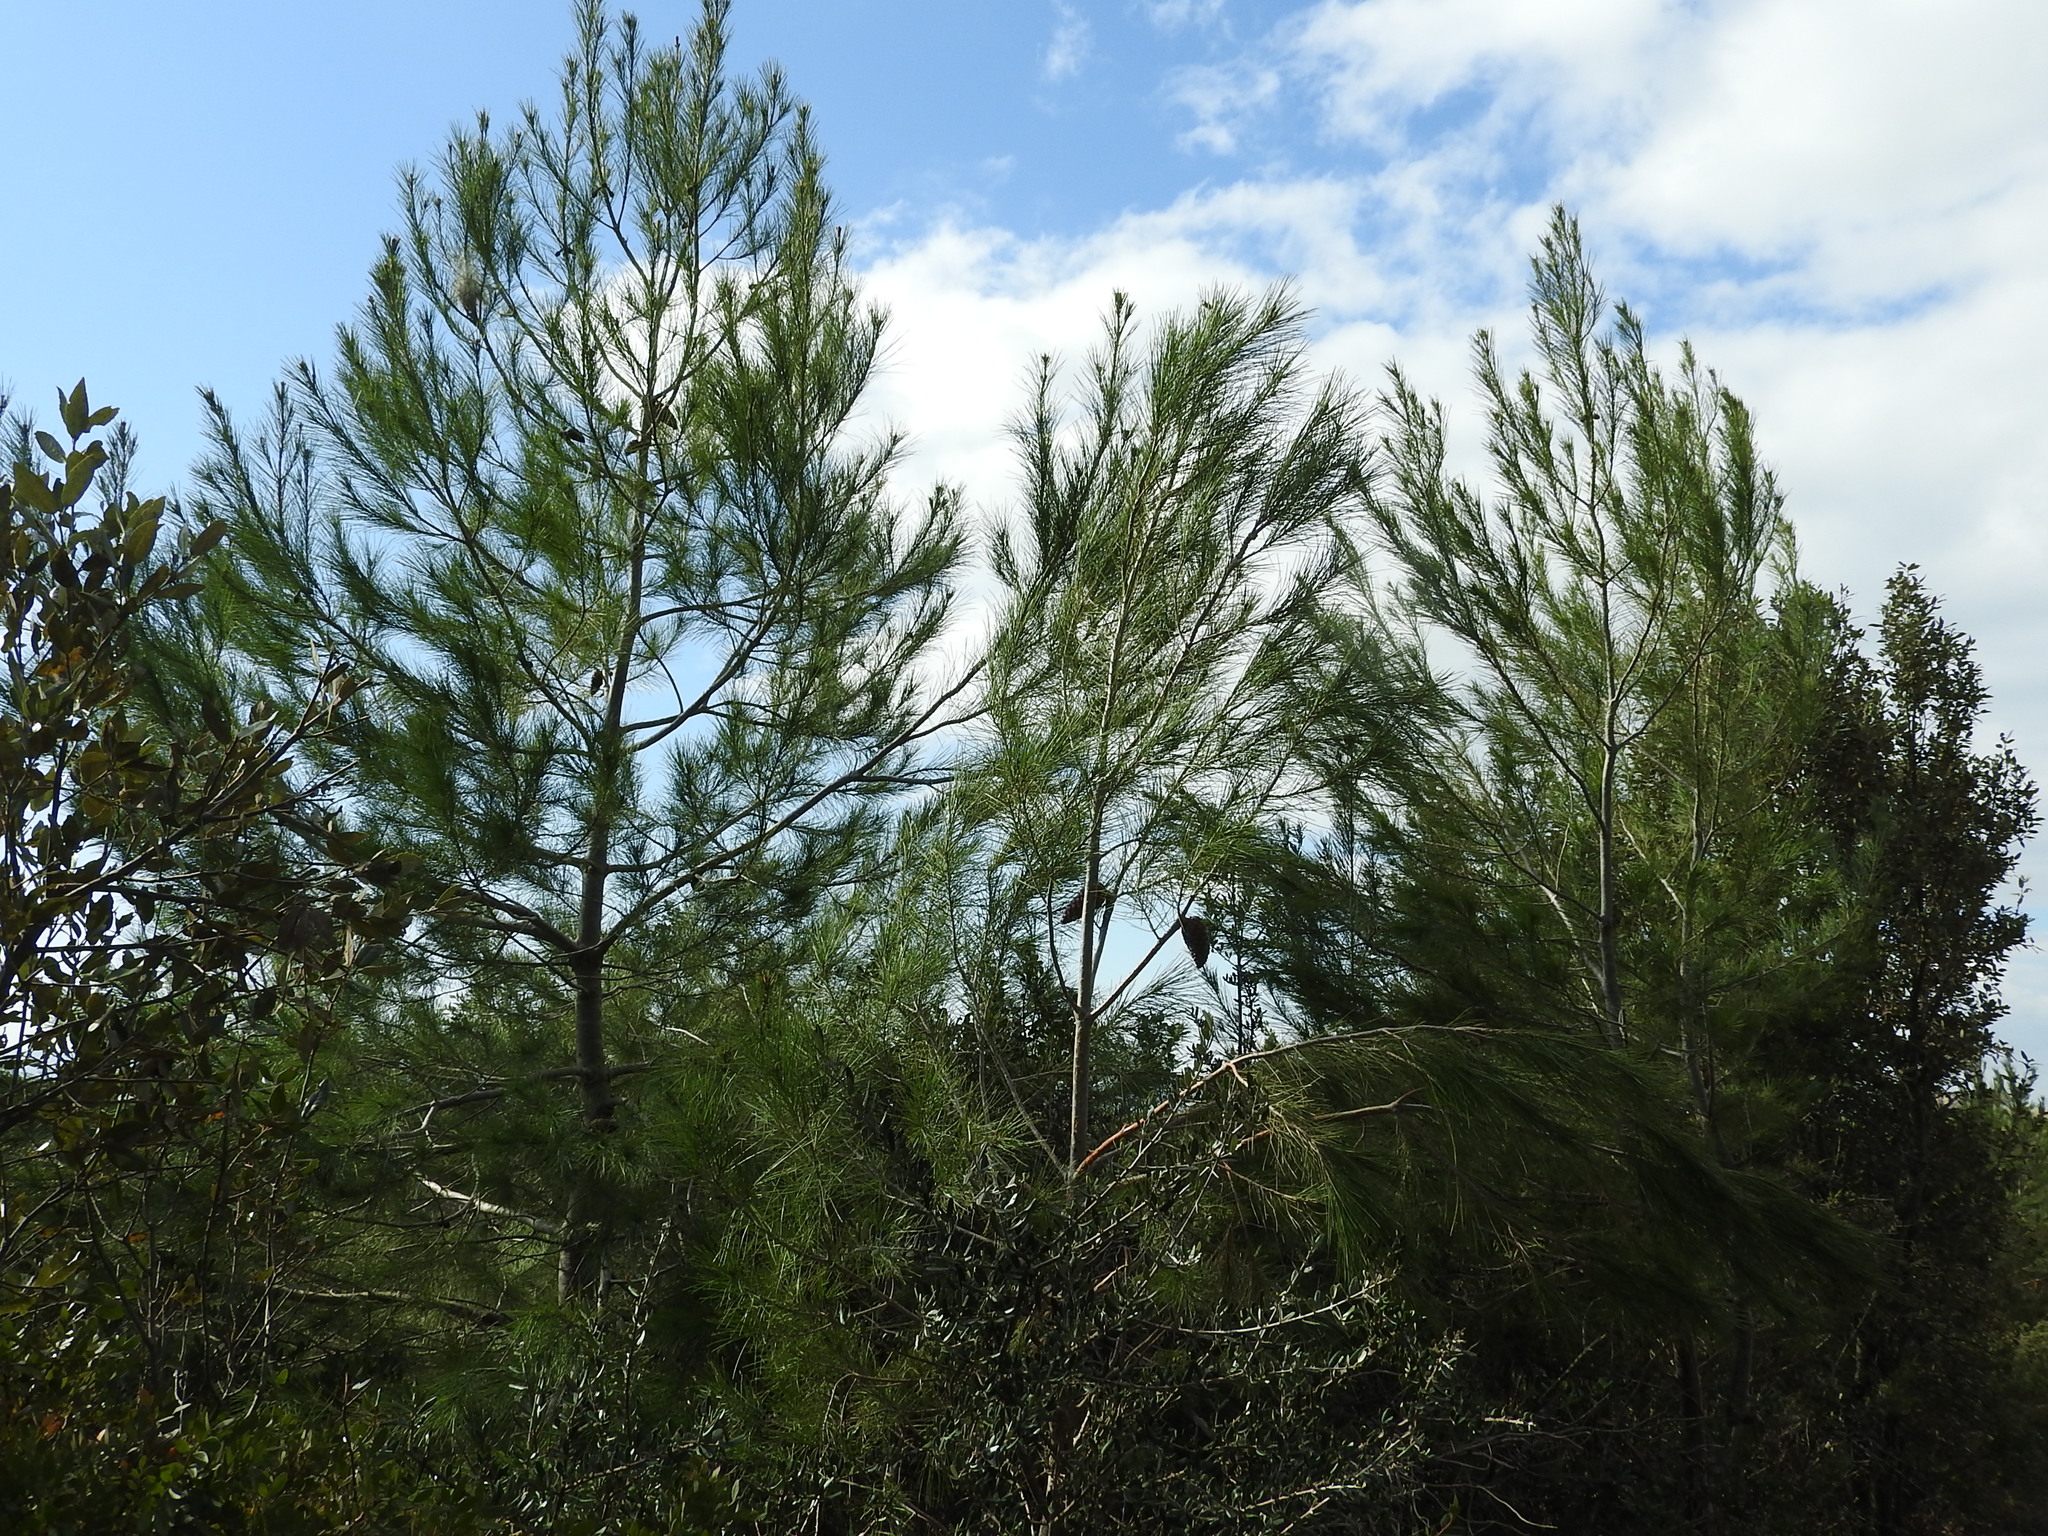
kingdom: Plantae
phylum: Tracheophyta
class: Pinopsida
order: Pinales
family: Pinaceae
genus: Pinus
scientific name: Pinus halepensis
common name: Aleppo pine
